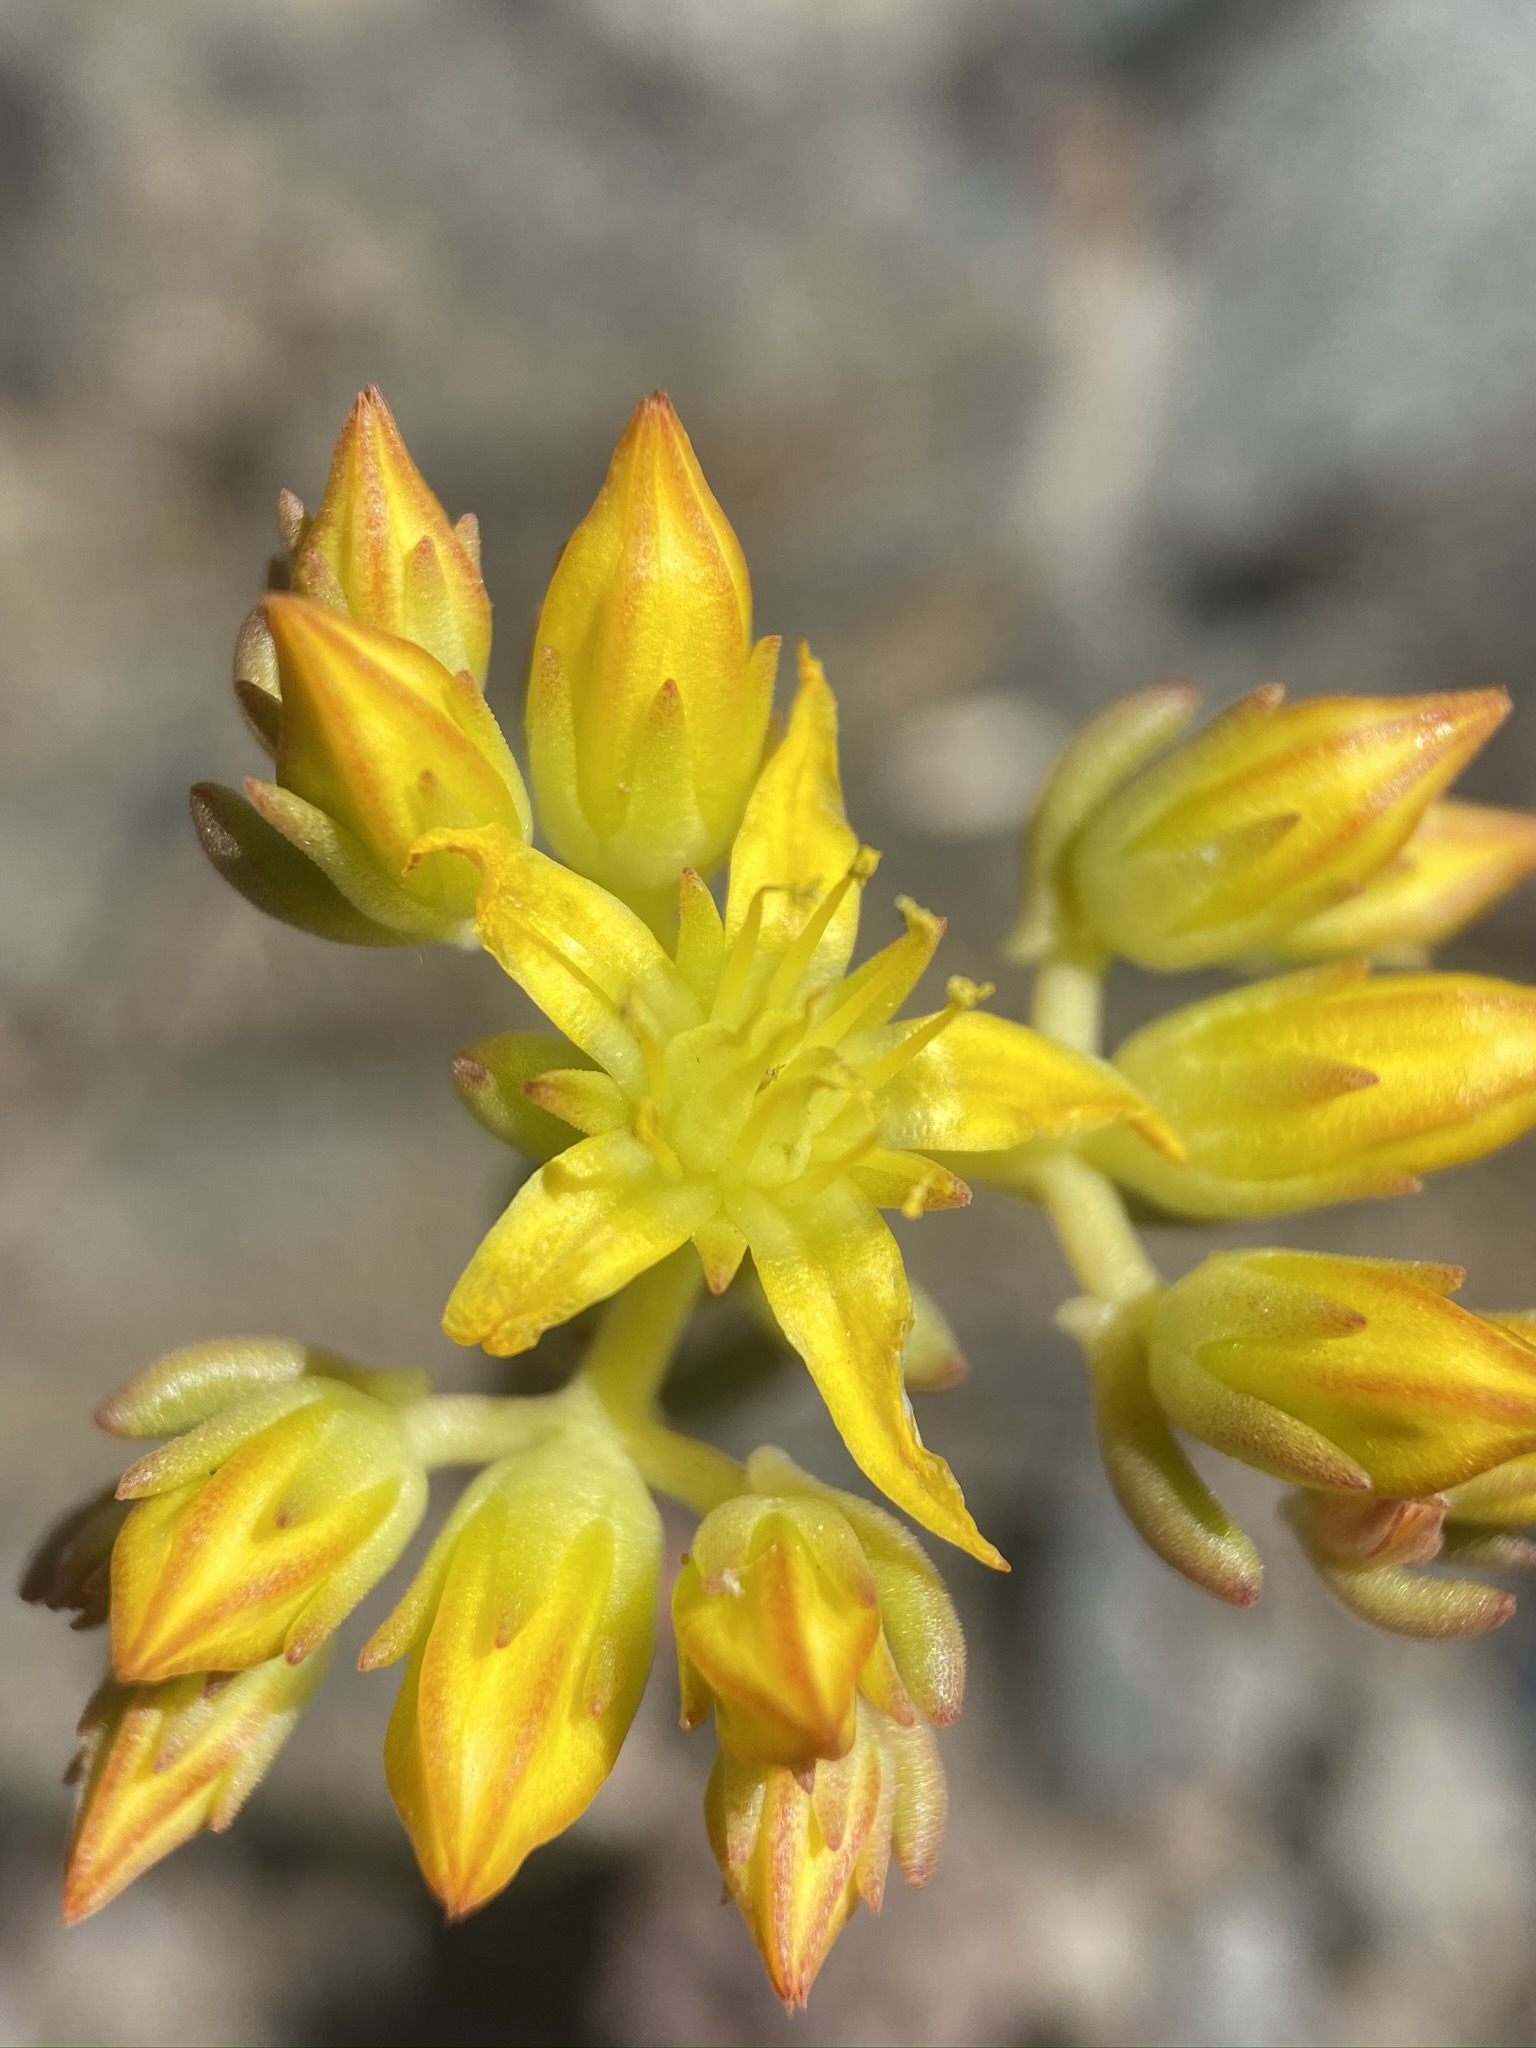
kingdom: Plantae
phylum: Tracheophyta
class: Magnoliopsida
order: Saxifragales
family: Crassulaceae
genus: Sedum
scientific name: Sedum lanceolatum
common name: Common stonecrop
